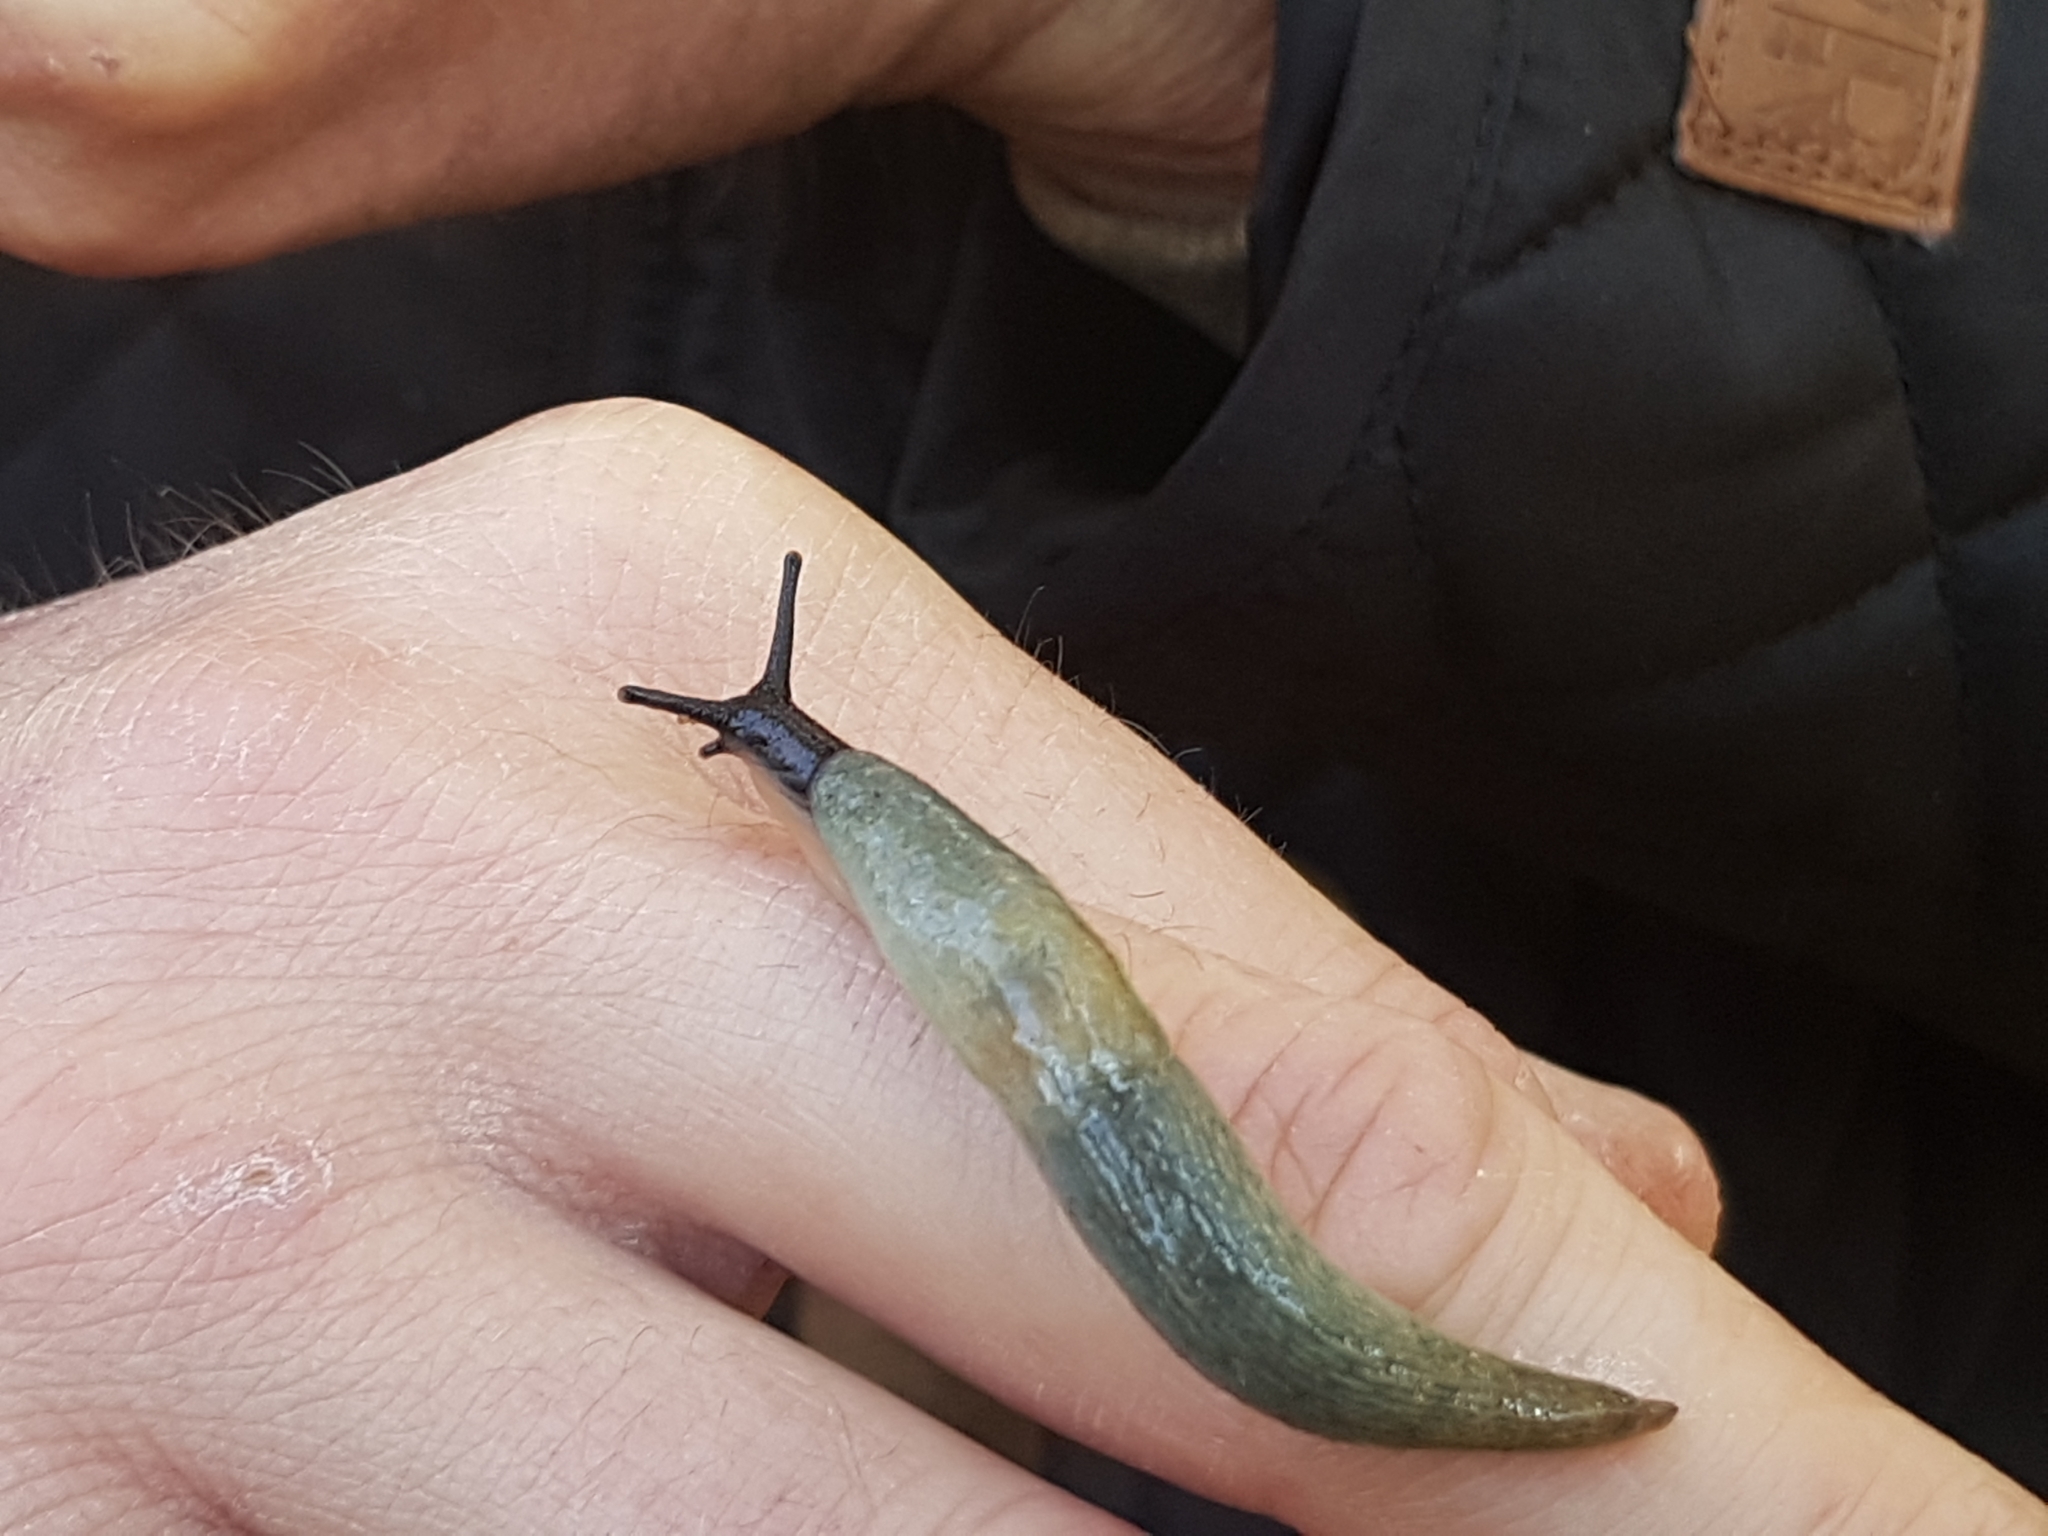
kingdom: Animalia
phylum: Mollusca
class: Gastropoda
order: Stylommatophora
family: Agriolimacidae
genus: Krynickillus
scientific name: Krynickillus melanocephalus
